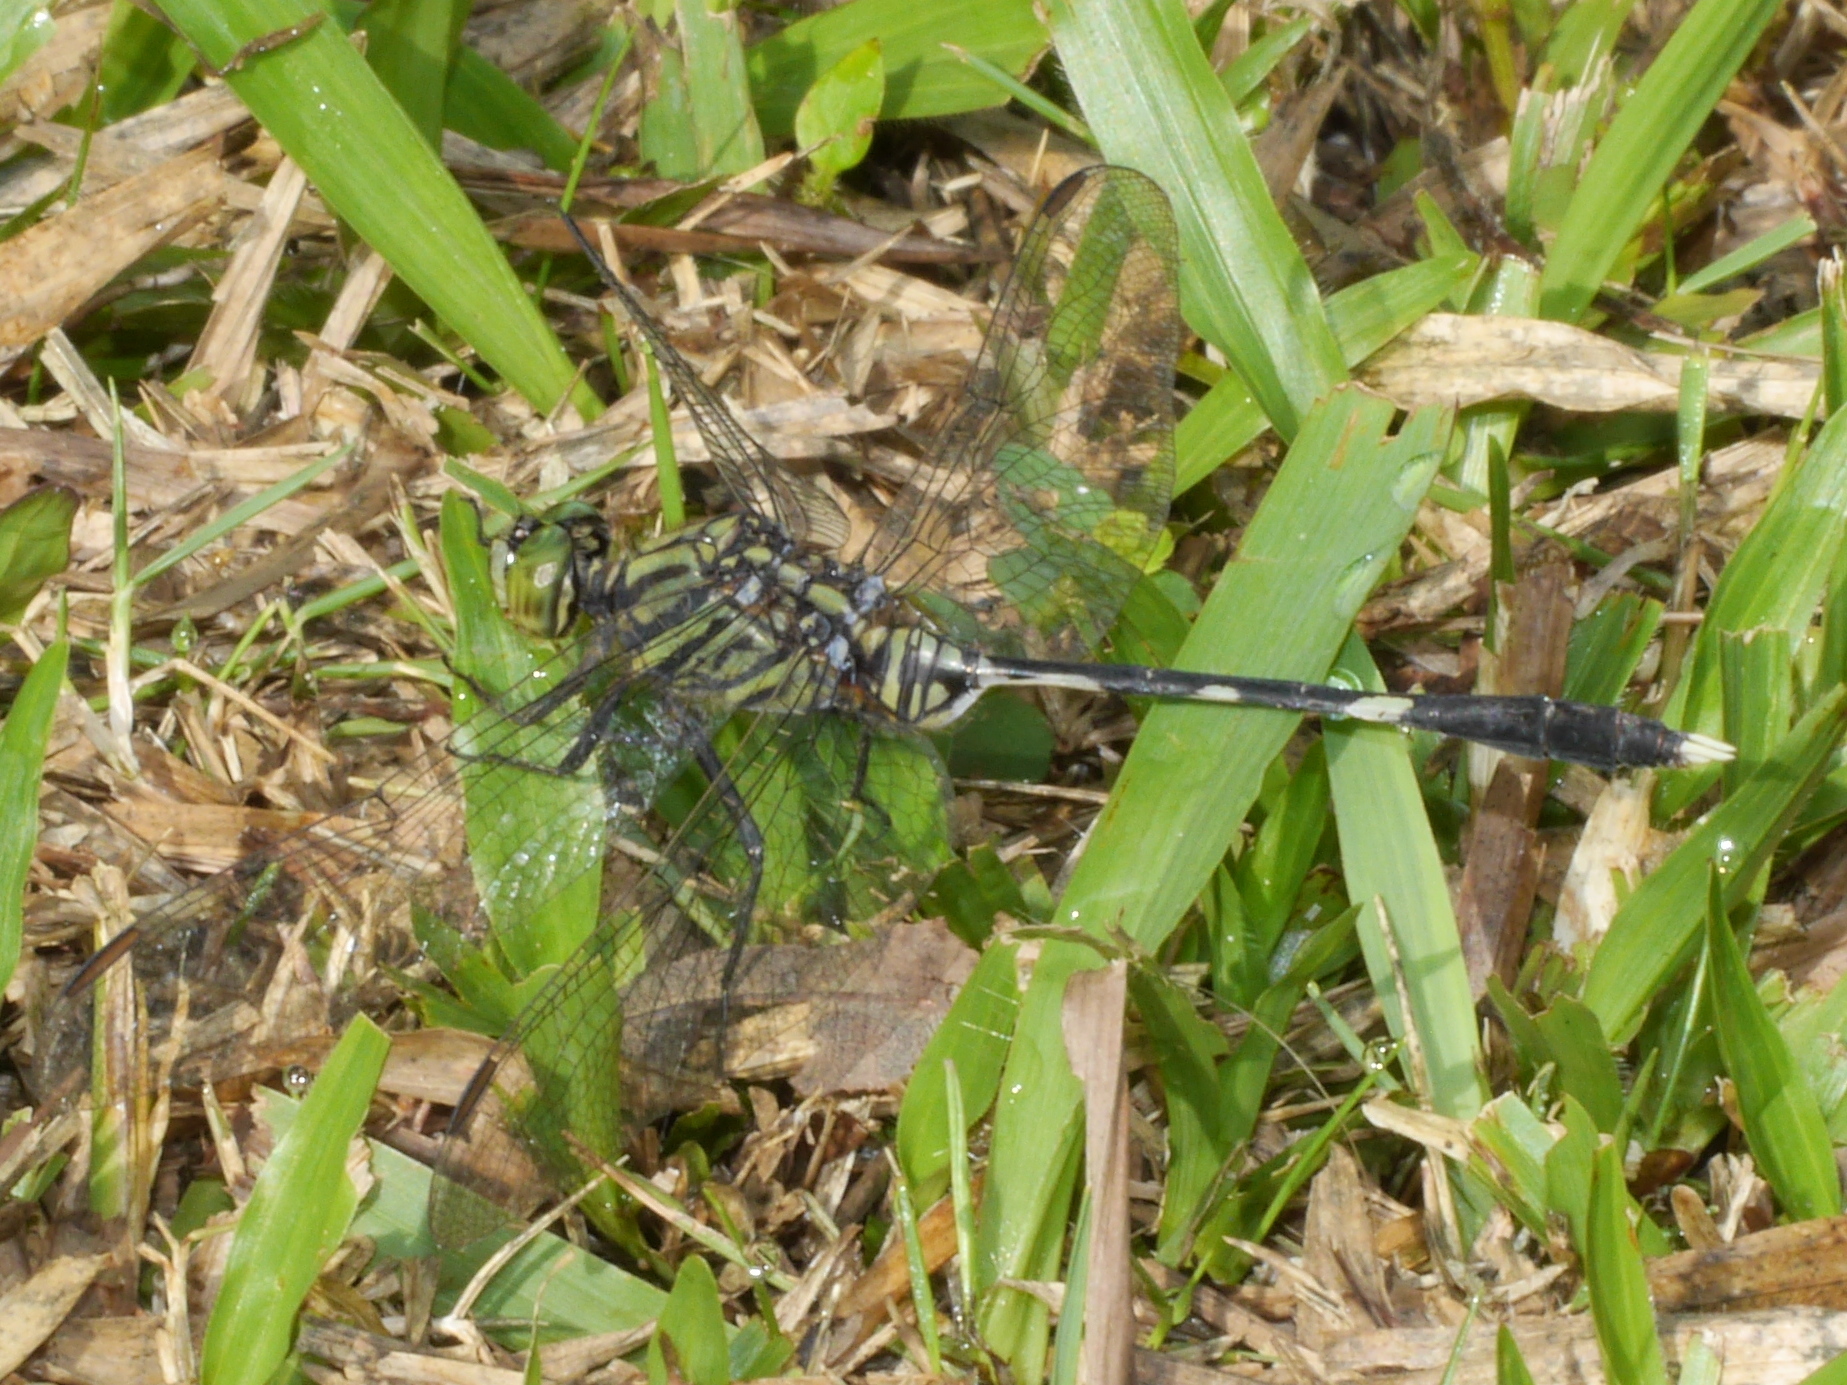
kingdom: Animalia
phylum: Arthropoda
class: Insecta
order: Odonata
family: Libellulidae
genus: Orthetrum
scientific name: Orthetrum sabina
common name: Slender skimmer
